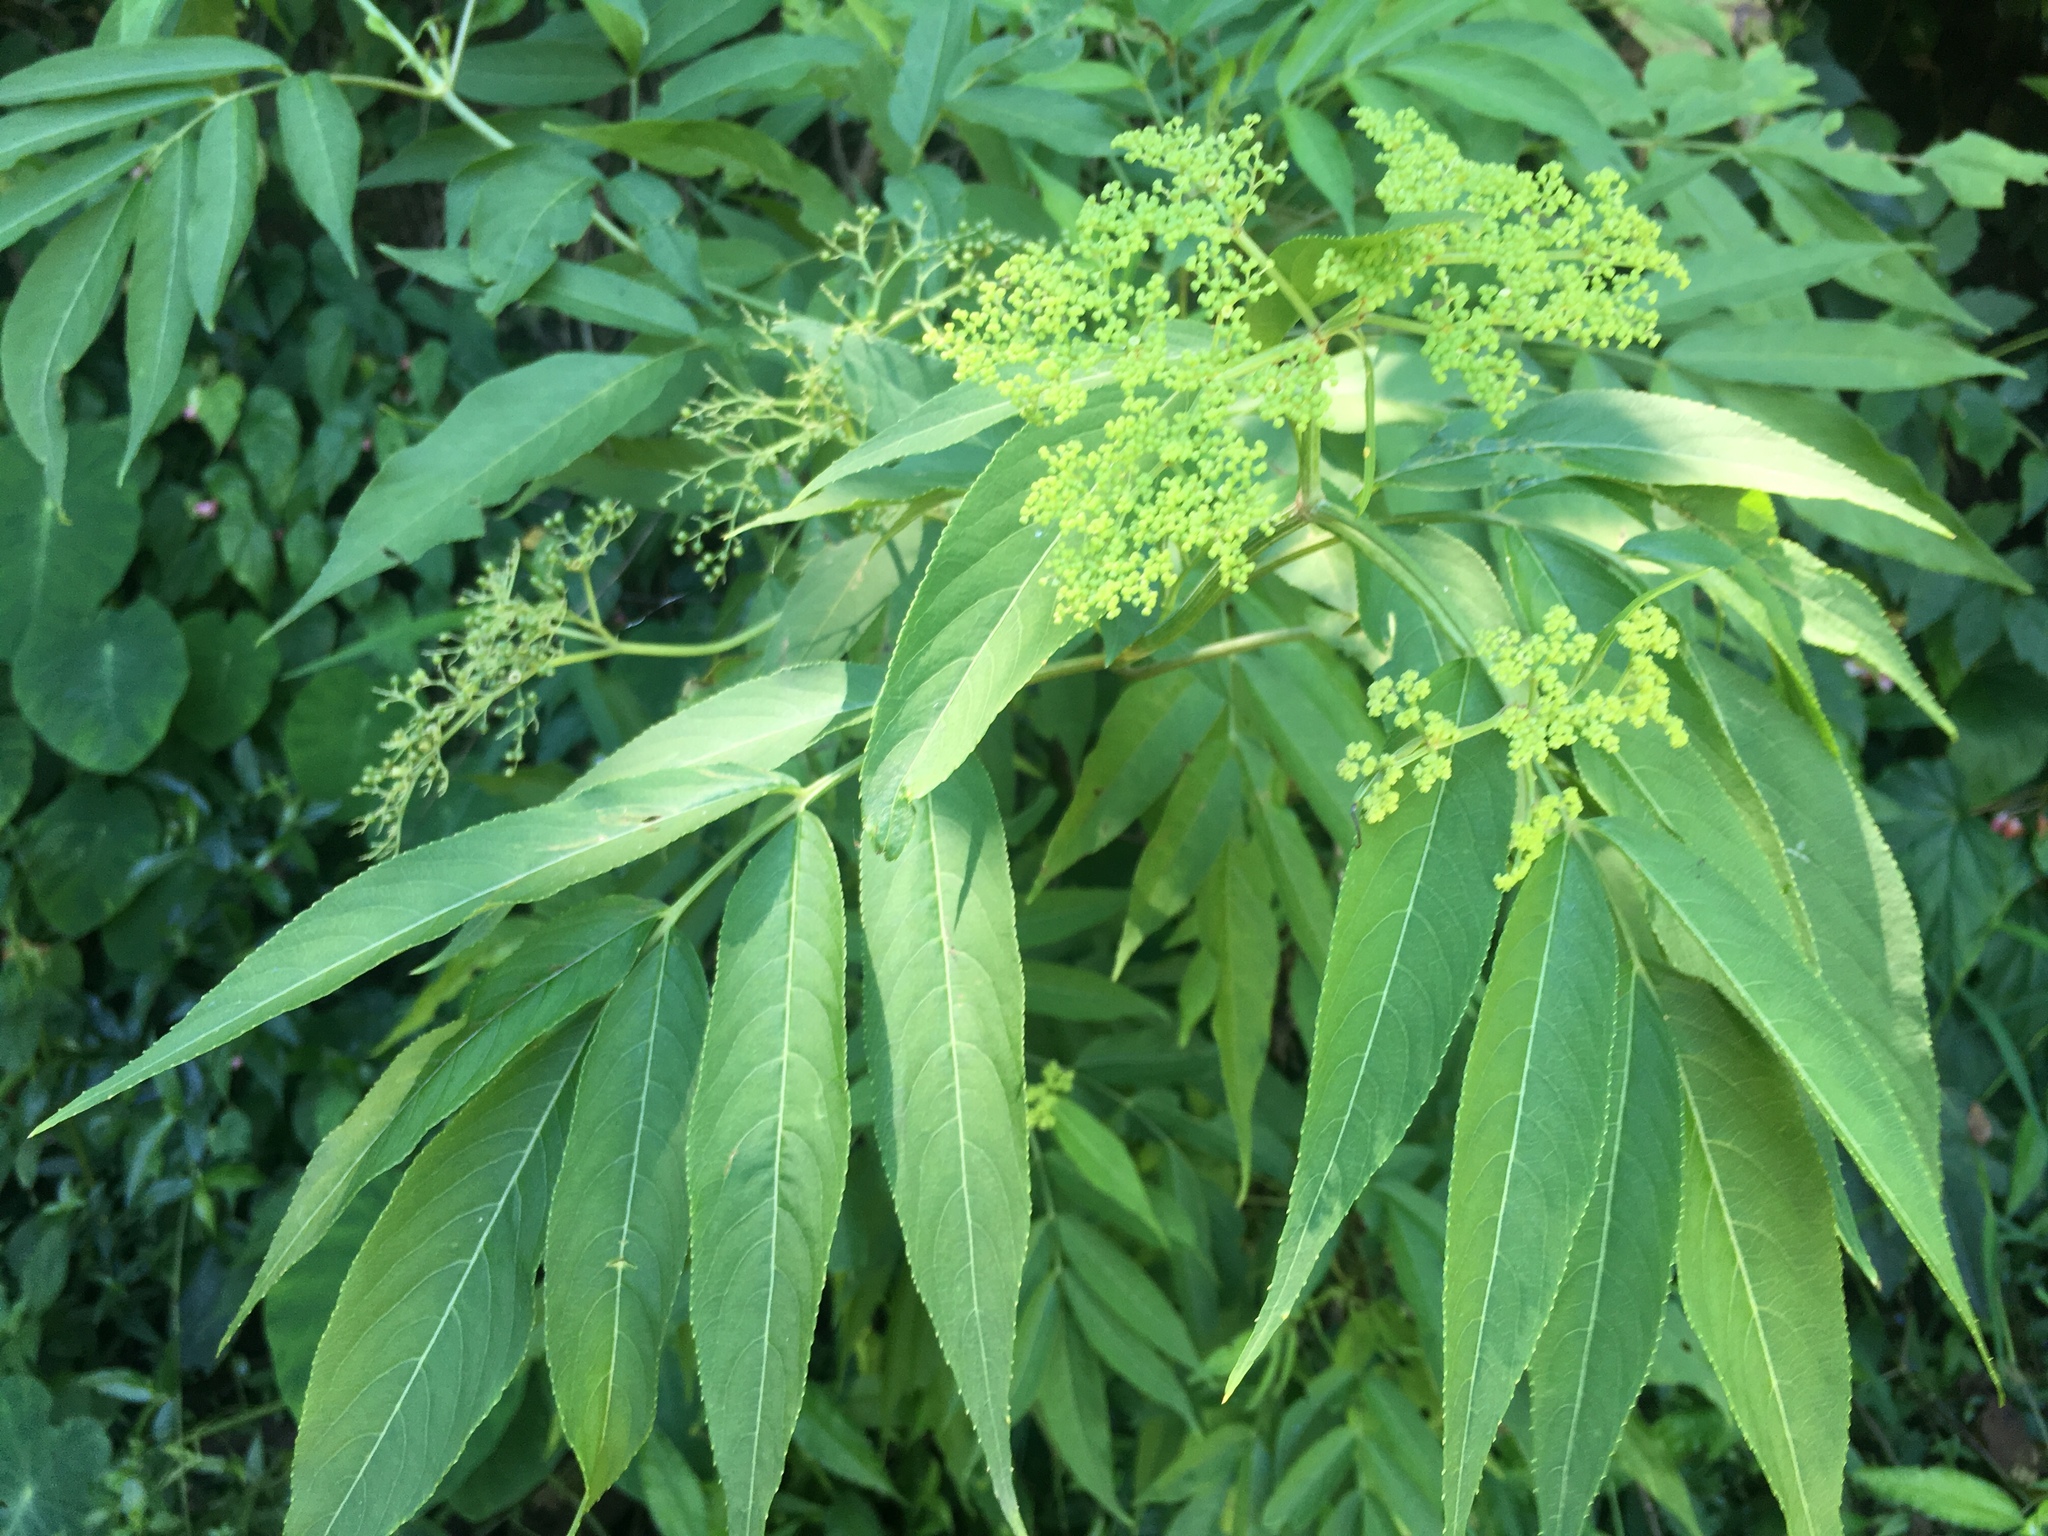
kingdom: Plantae
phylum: Tracheophyta
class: Magnoliopsida
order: Dipsacales
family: Viburnaceae
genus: Sambucus
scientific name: Sambucus javanica
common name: Chinese elder
